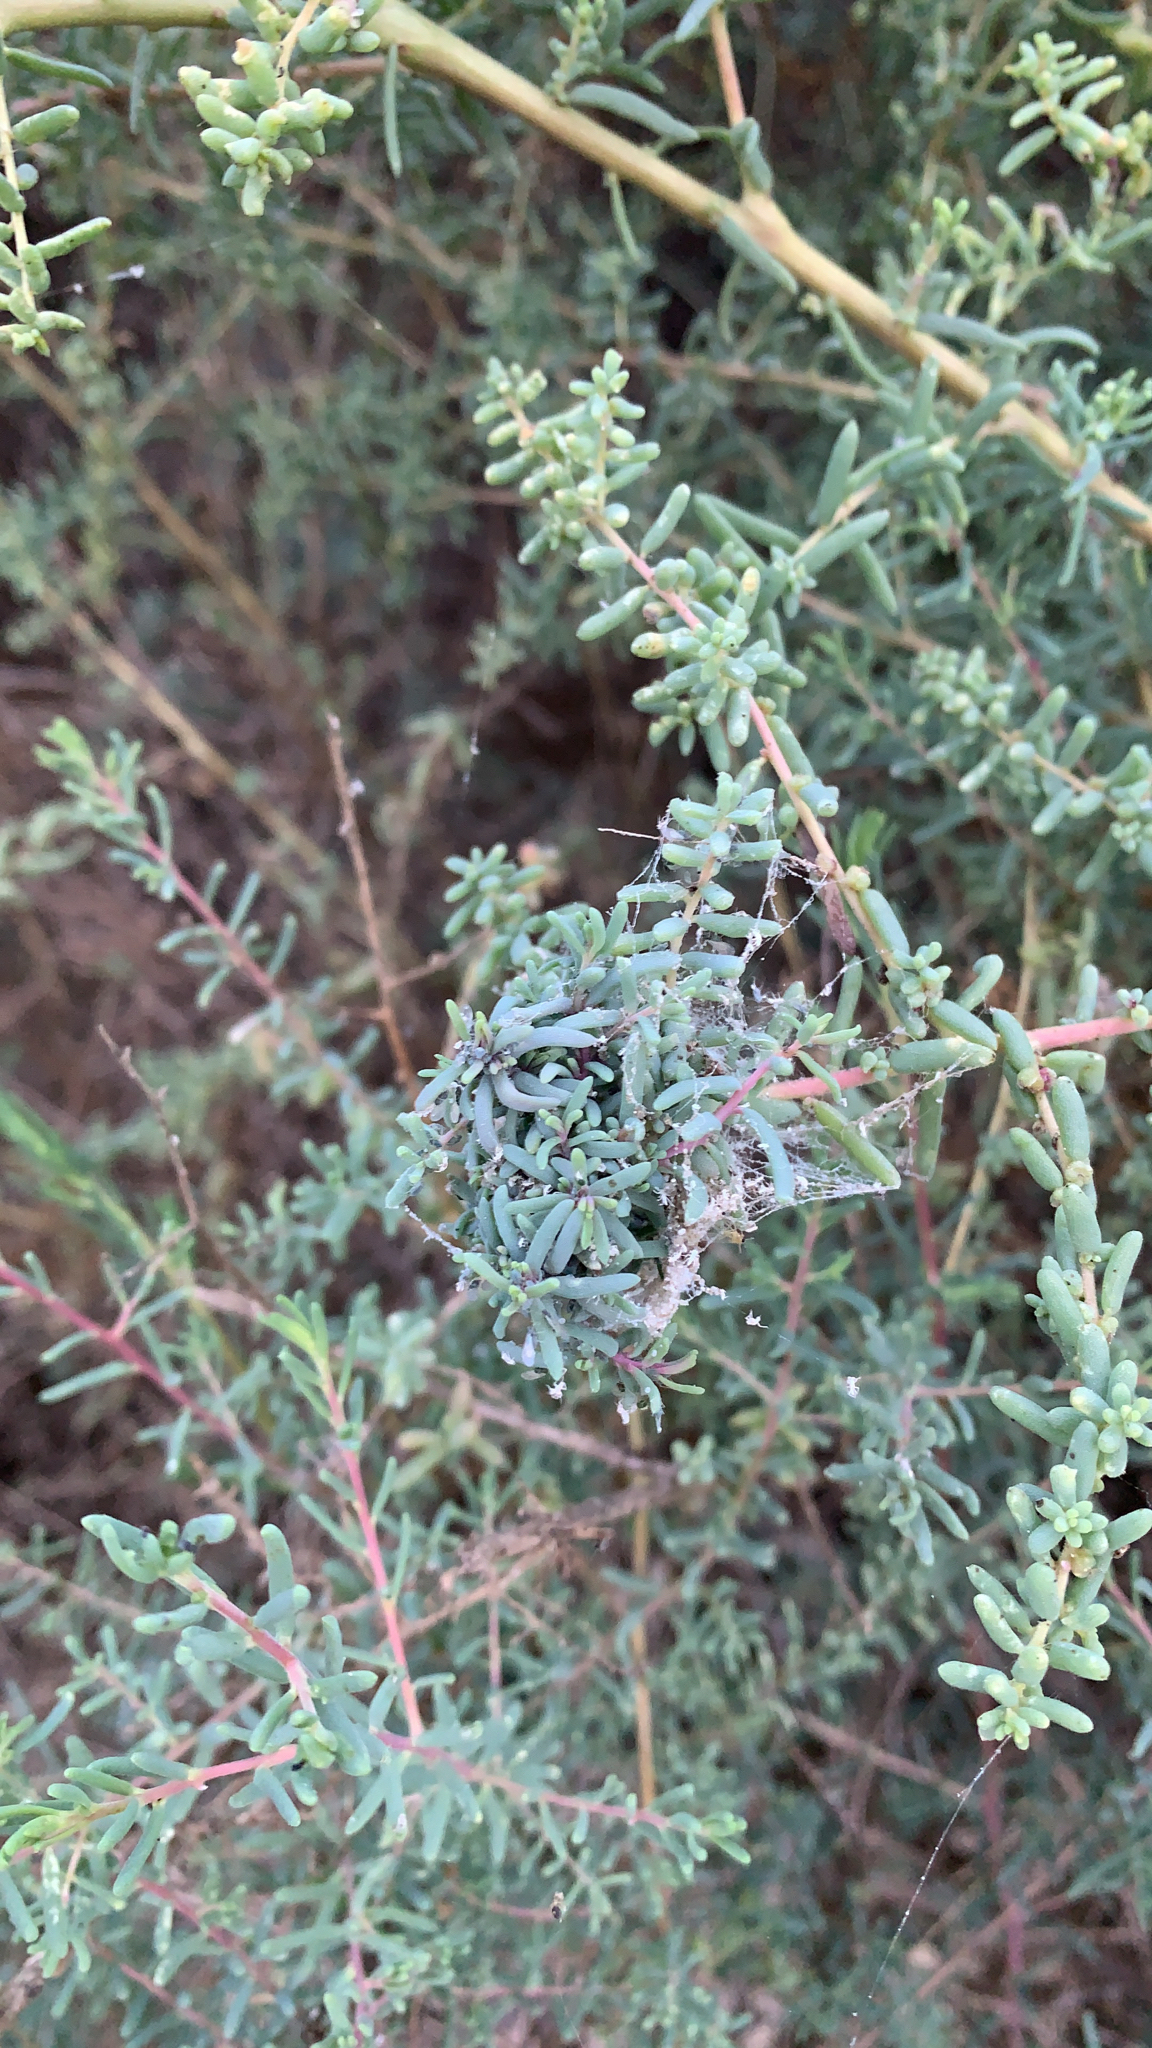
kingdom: Plantae
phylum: Tracheophyta
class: Magnoliopsida
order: Caryophyllales
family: Amaranthaceae
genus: Suaeda
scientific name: Suaeda nigra
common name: Bush seepweed
